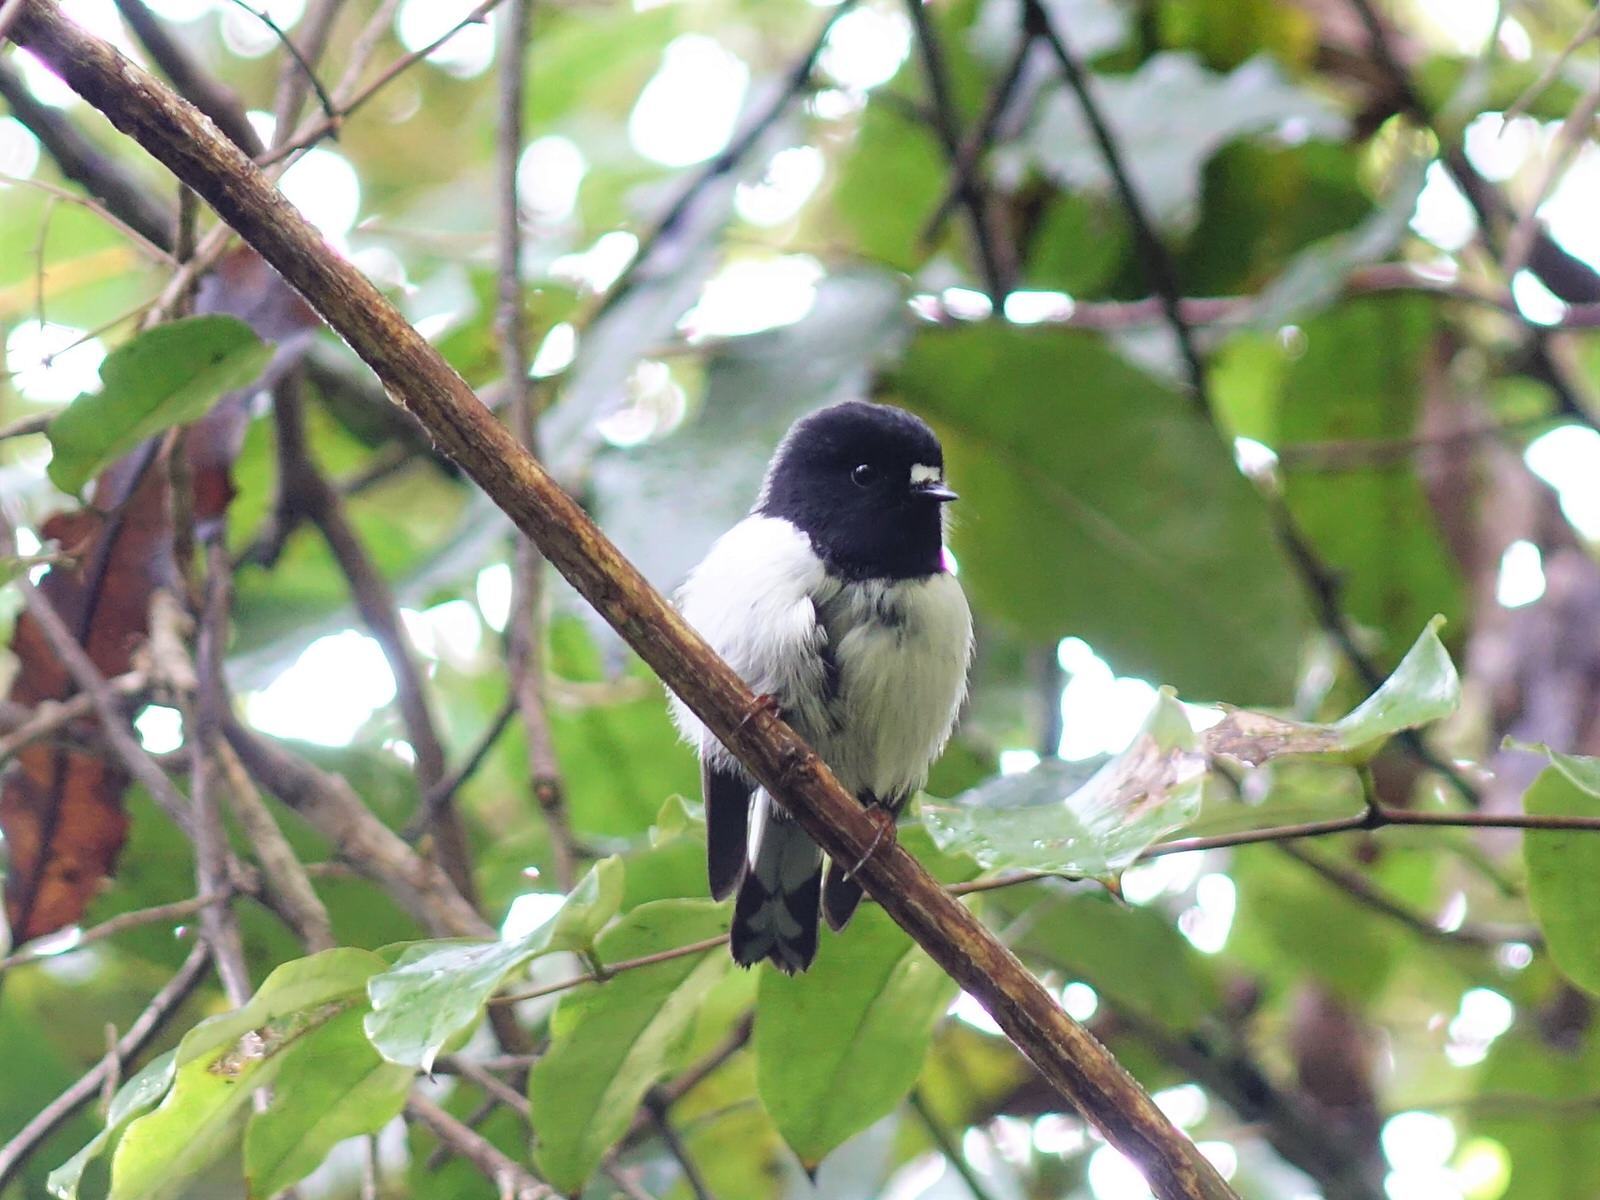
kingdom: Animalia
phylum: Chordata
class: Aves
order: Passeriformes
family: Petroicidae
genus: Petroica
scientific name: Petroica macrocephala
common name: Tomtit
